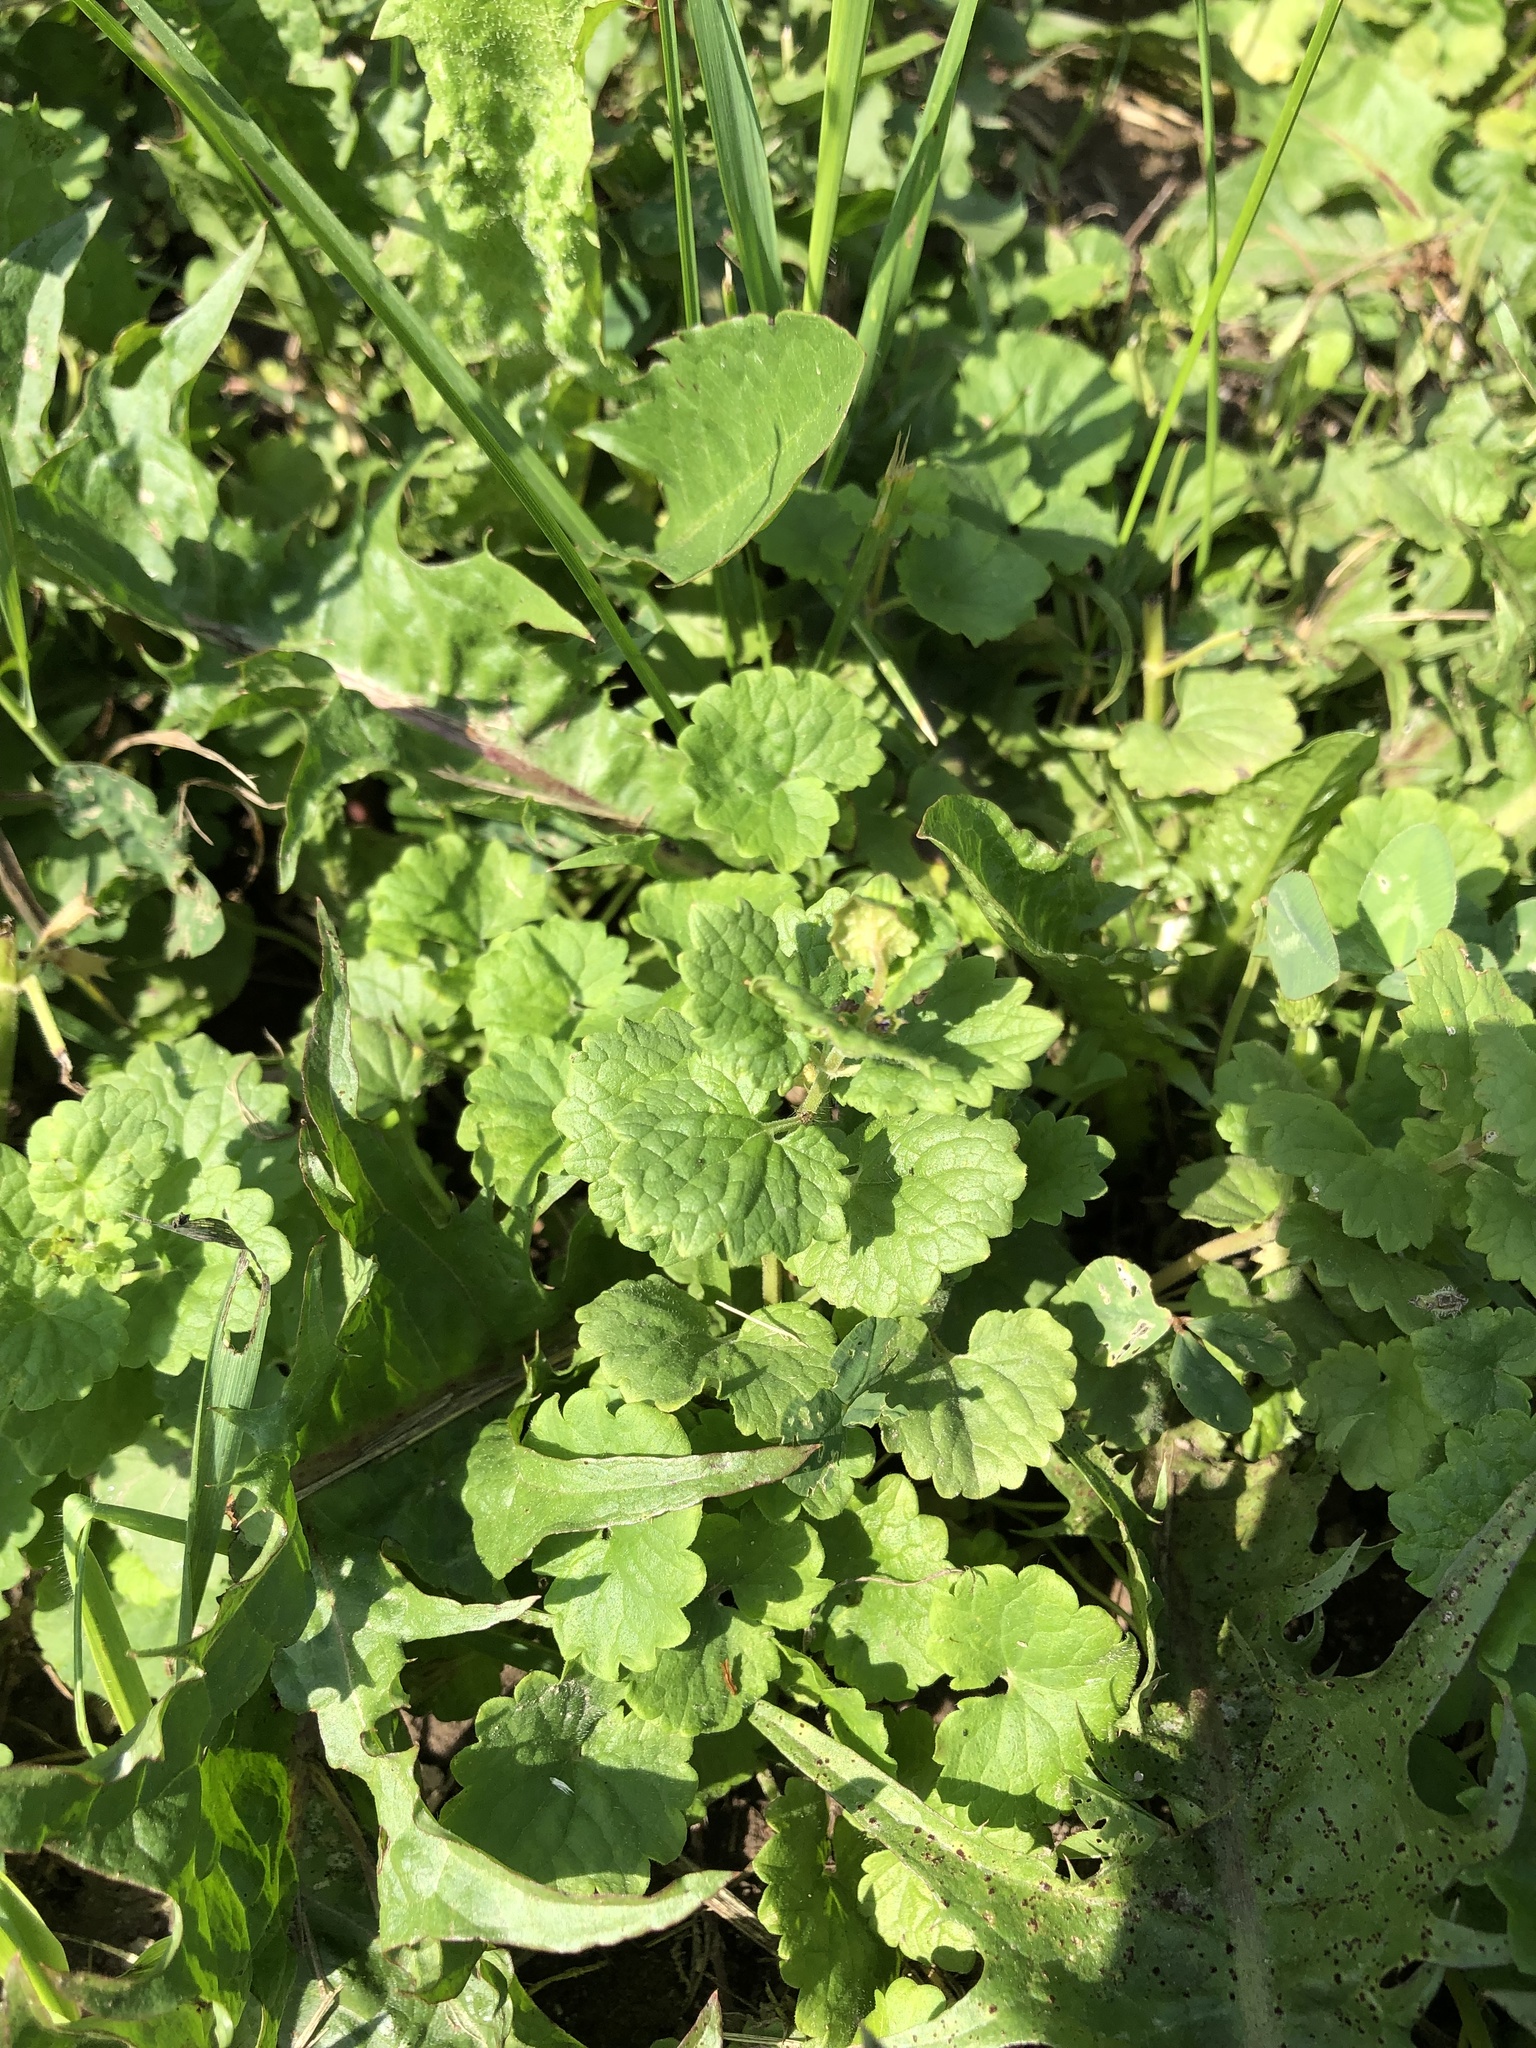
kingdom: Plantae
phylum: Tracheophyta
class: Magnoliopsida
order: Lamiales
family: Lamiaceae
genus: Glechoma
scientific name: Glechoma hederacea
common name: Ground ivy
